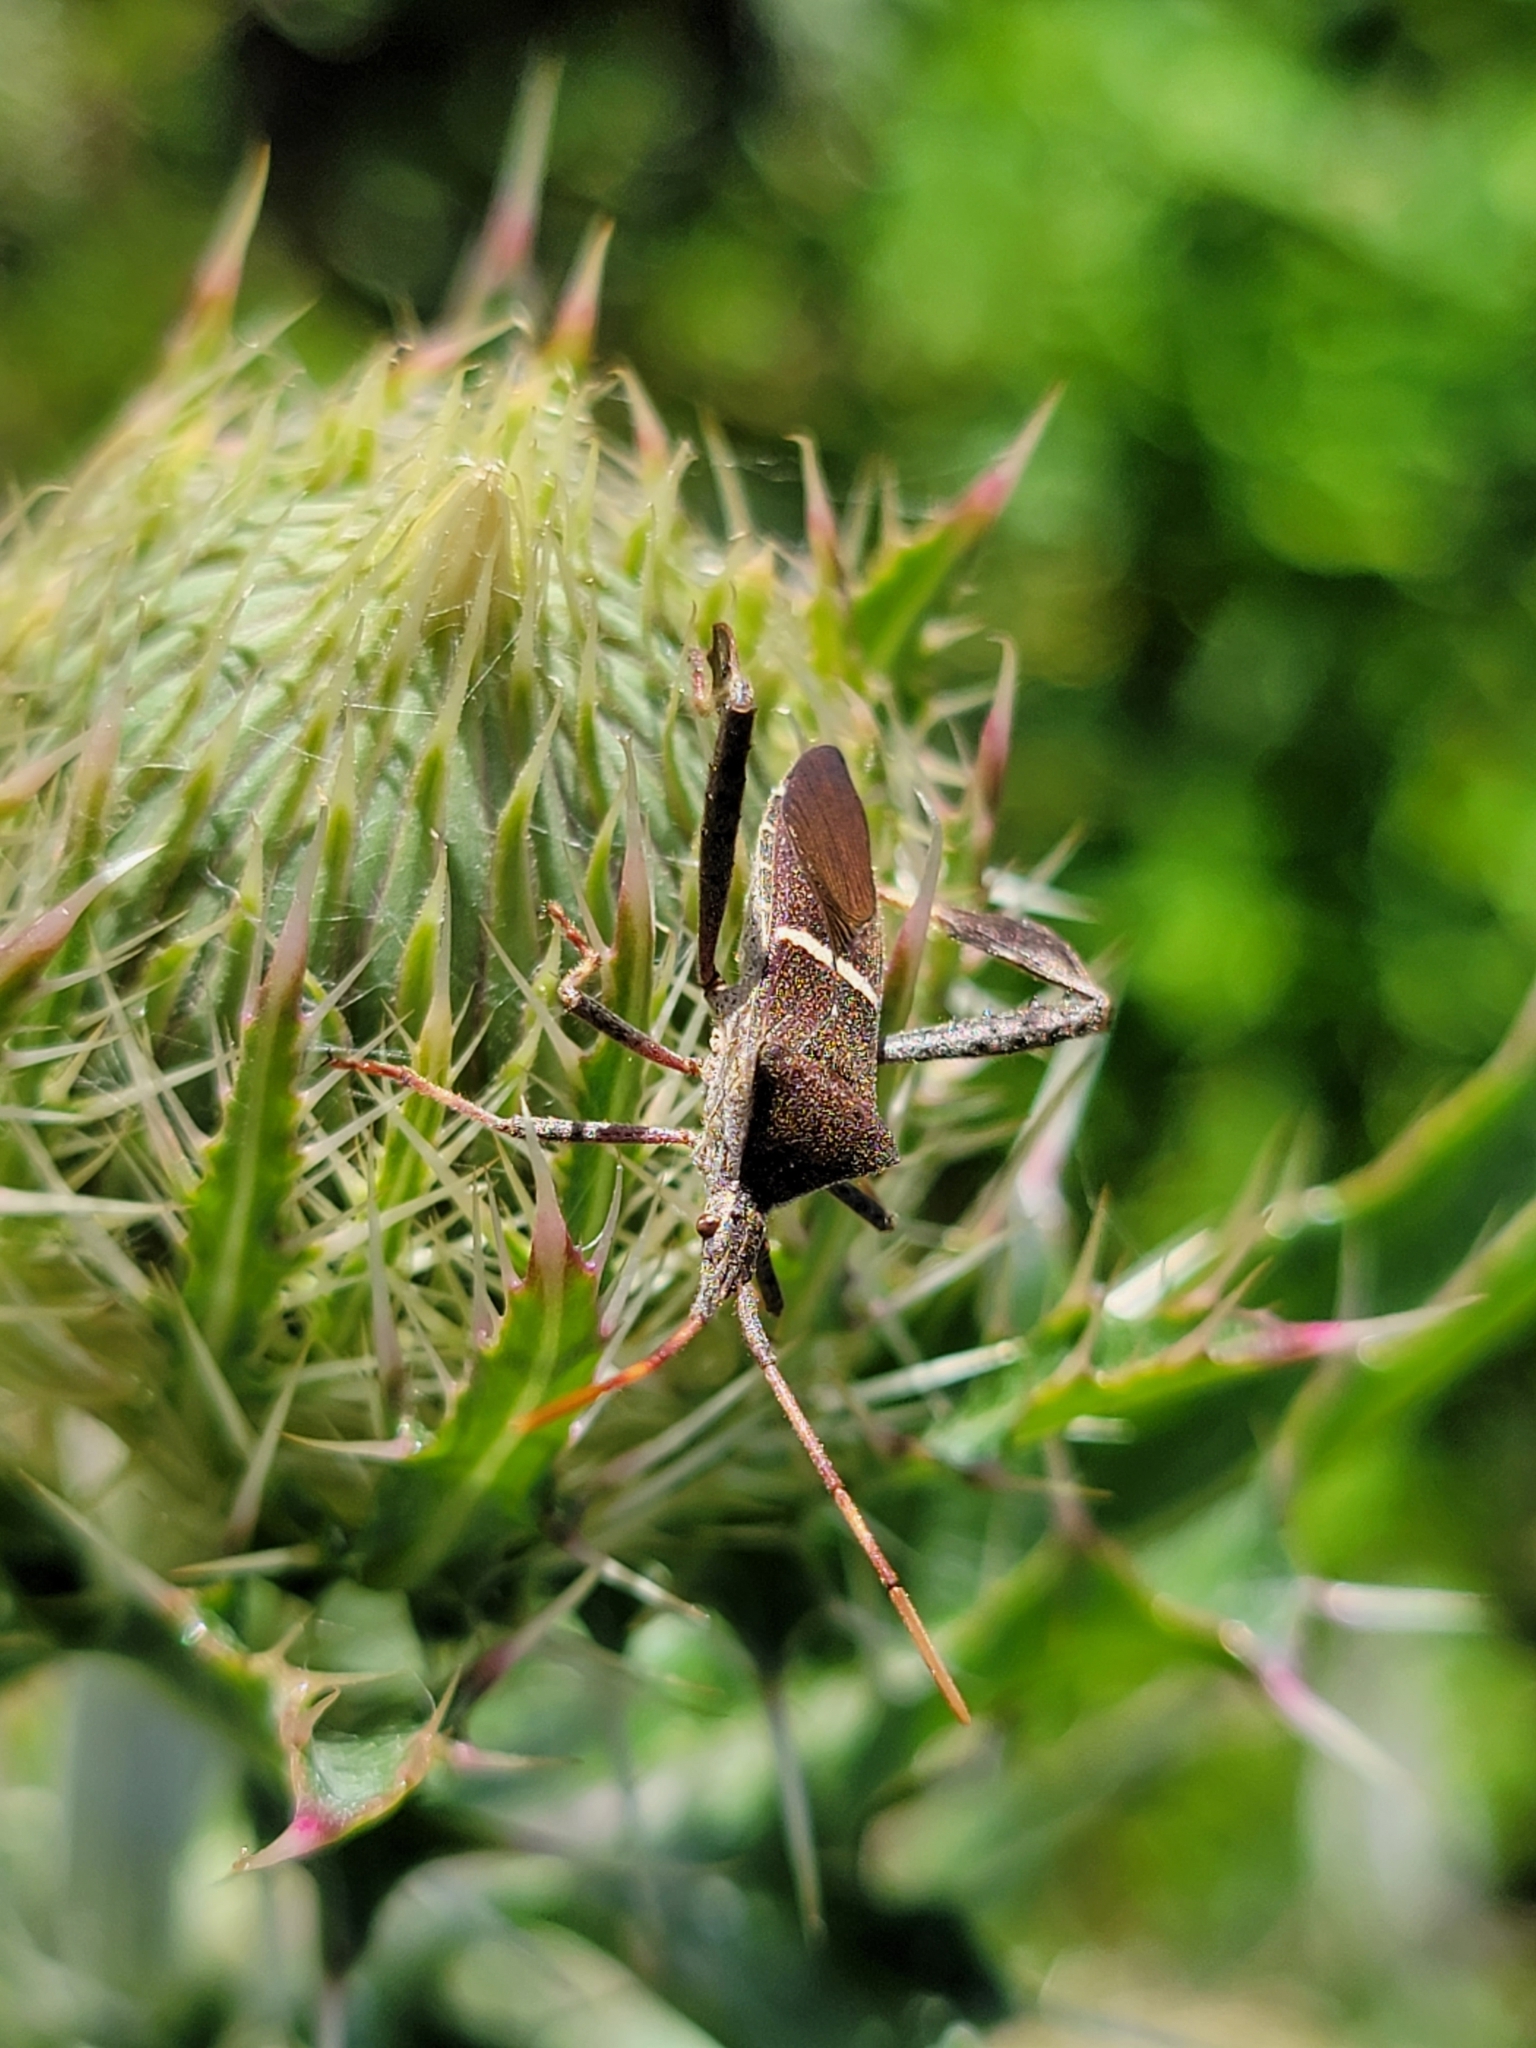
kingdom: Animalia
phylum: Arthropoda
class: Insecta
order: Hemiptera
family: Coreidae
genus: Leptoglossus
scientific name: Leptoglossus phyllopus
